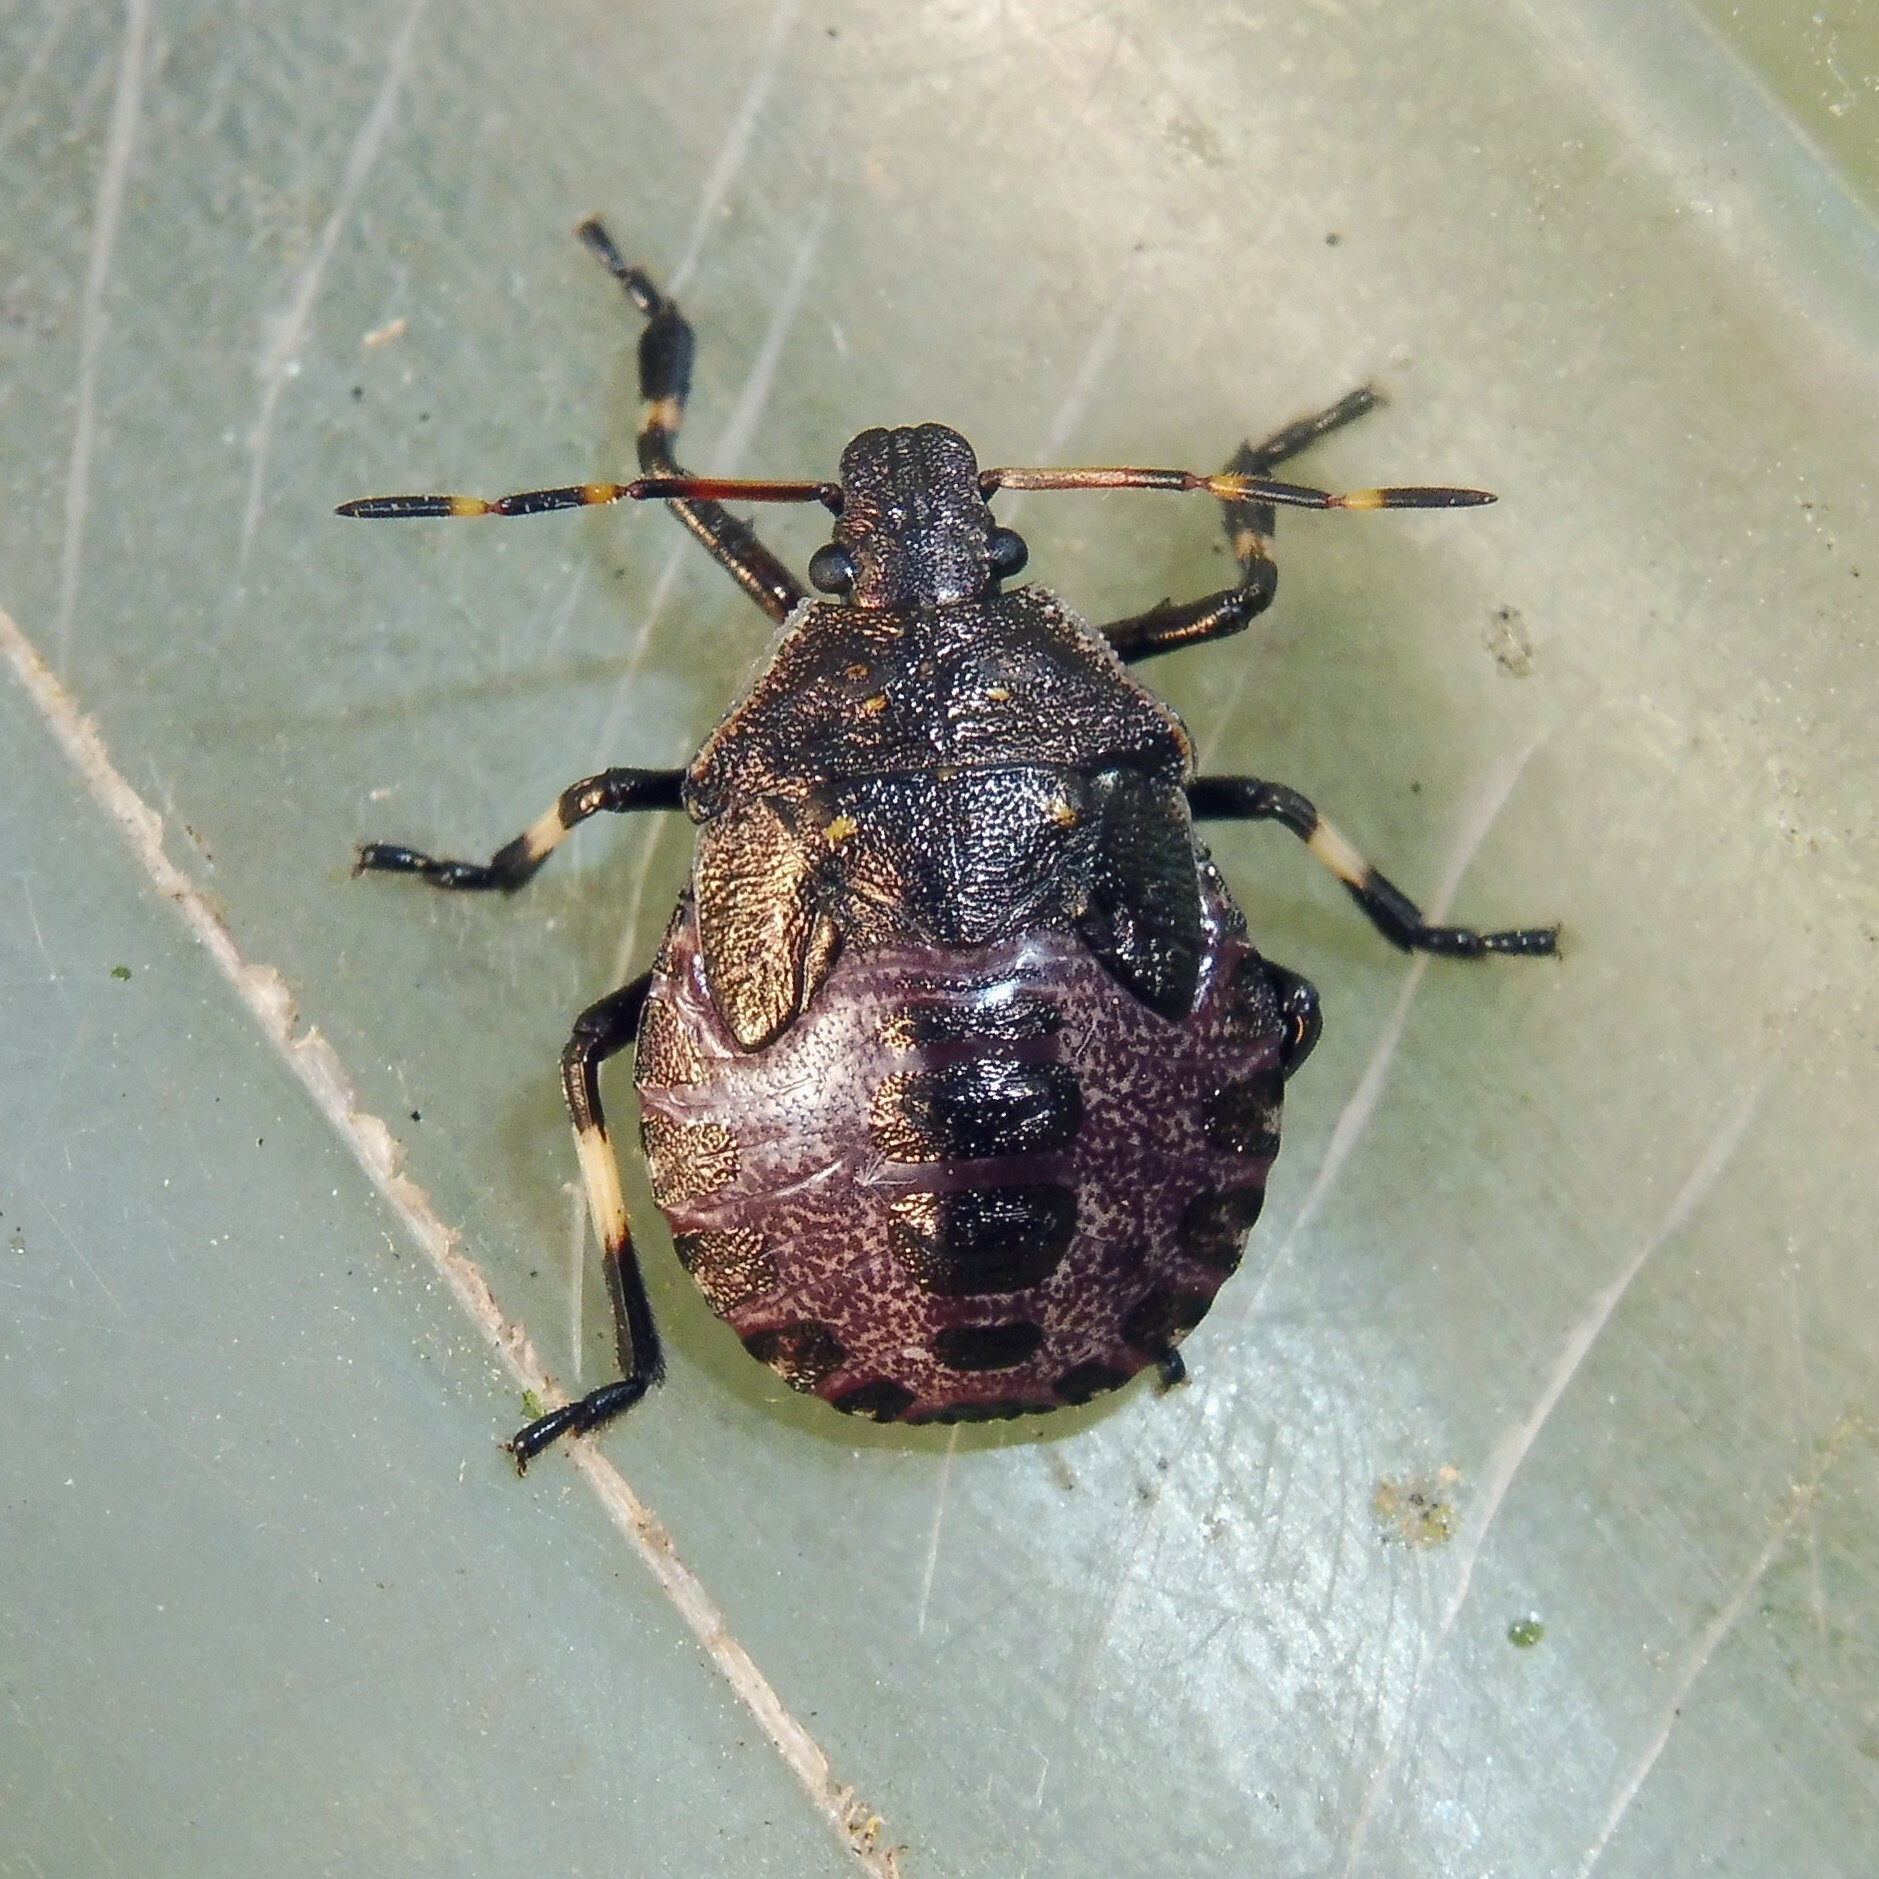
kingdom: Animalia
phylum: Arthropoda
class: Insecta
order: Hemiptera
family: Pentatomidae
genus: Picromerus
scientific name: Picromerus bidens
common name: Spiked shieldbug
